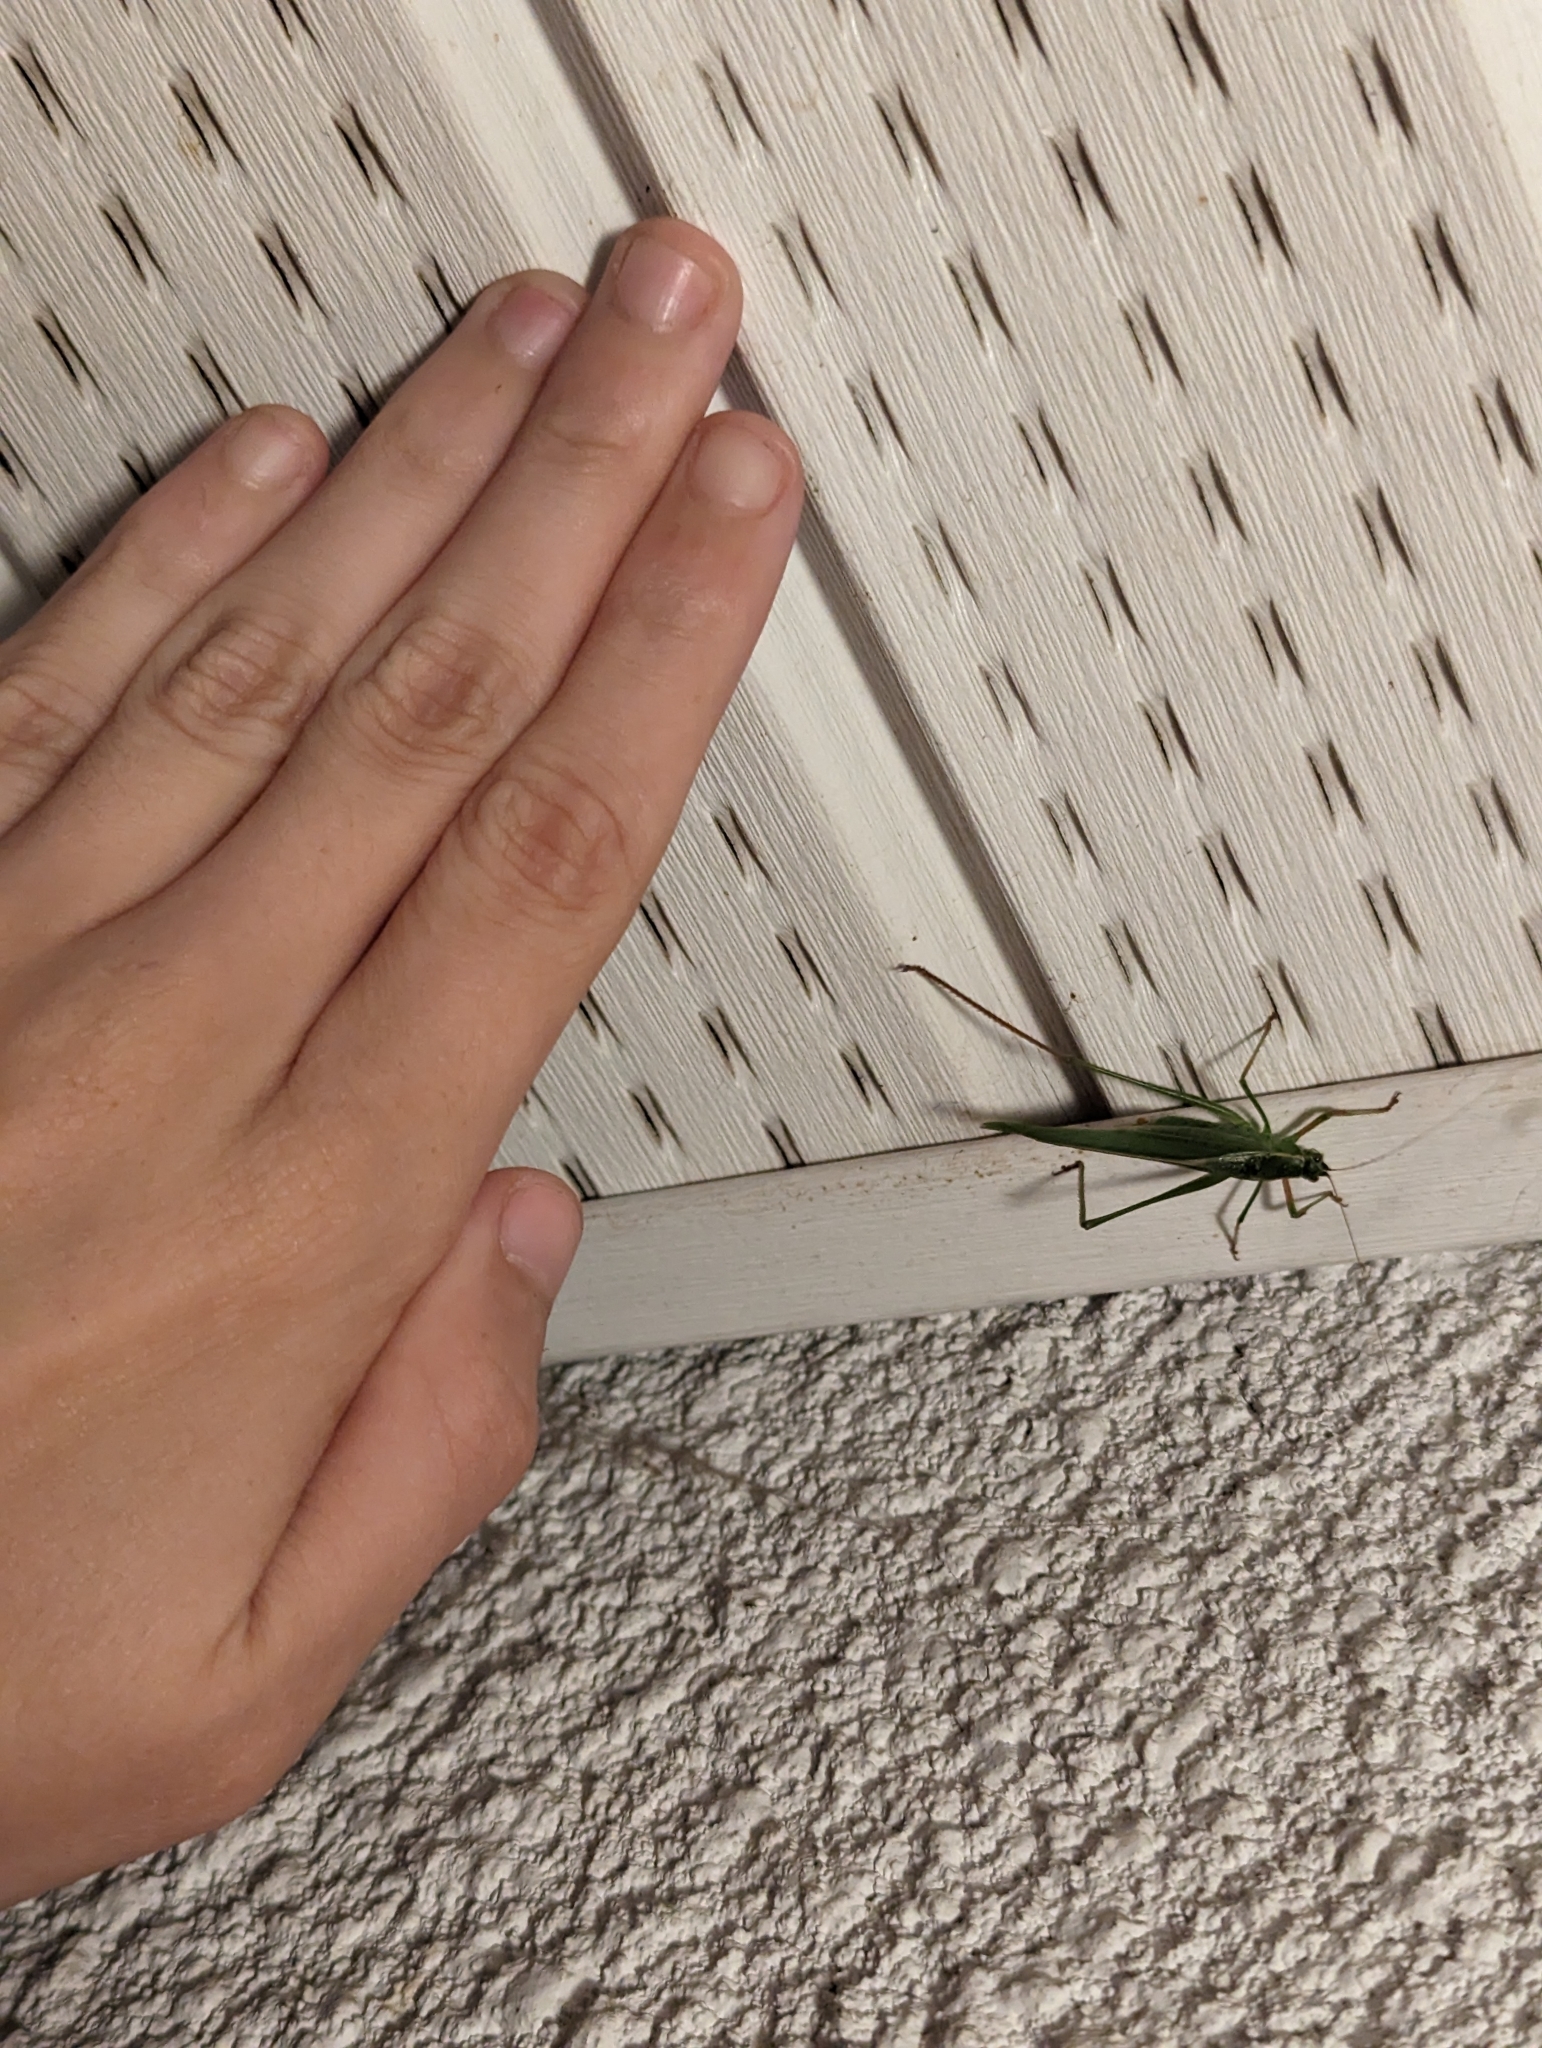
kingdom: Animalia
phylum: Arthropoda
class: Insecta
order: Orthoptera
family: Tettigoniidae
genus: Scudderia
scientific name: Scudderia furcata
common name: Fork-tailed bush katydid
